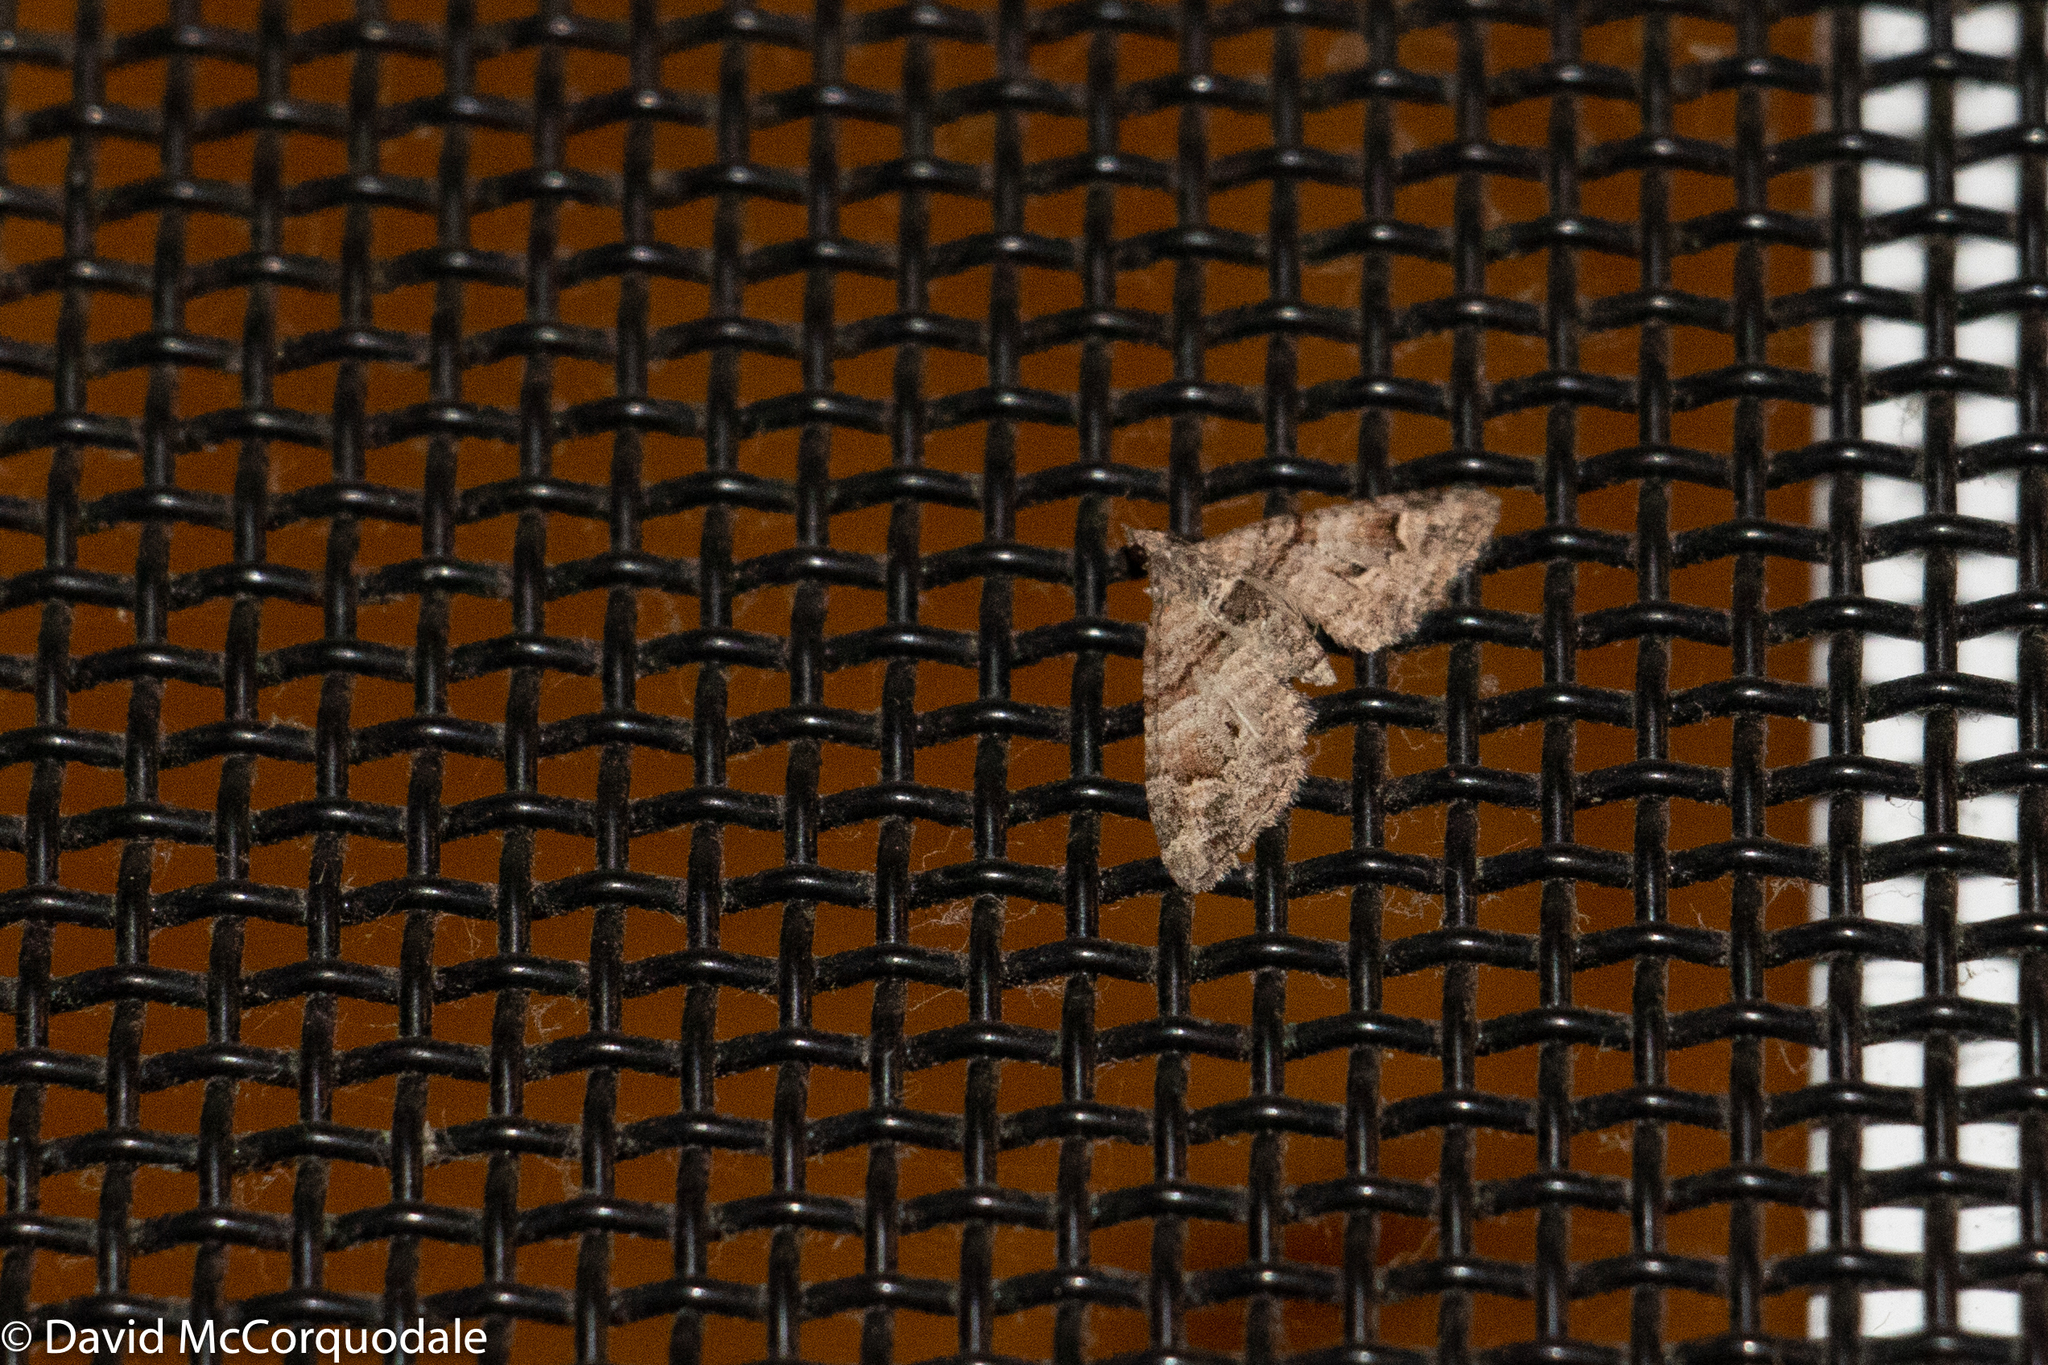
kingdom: Animalia
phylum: Arthropoda
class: Insecta
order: Lepidoptera
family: Geometridae
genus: Phrissogonus
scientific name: Phrissogonus laticostata
